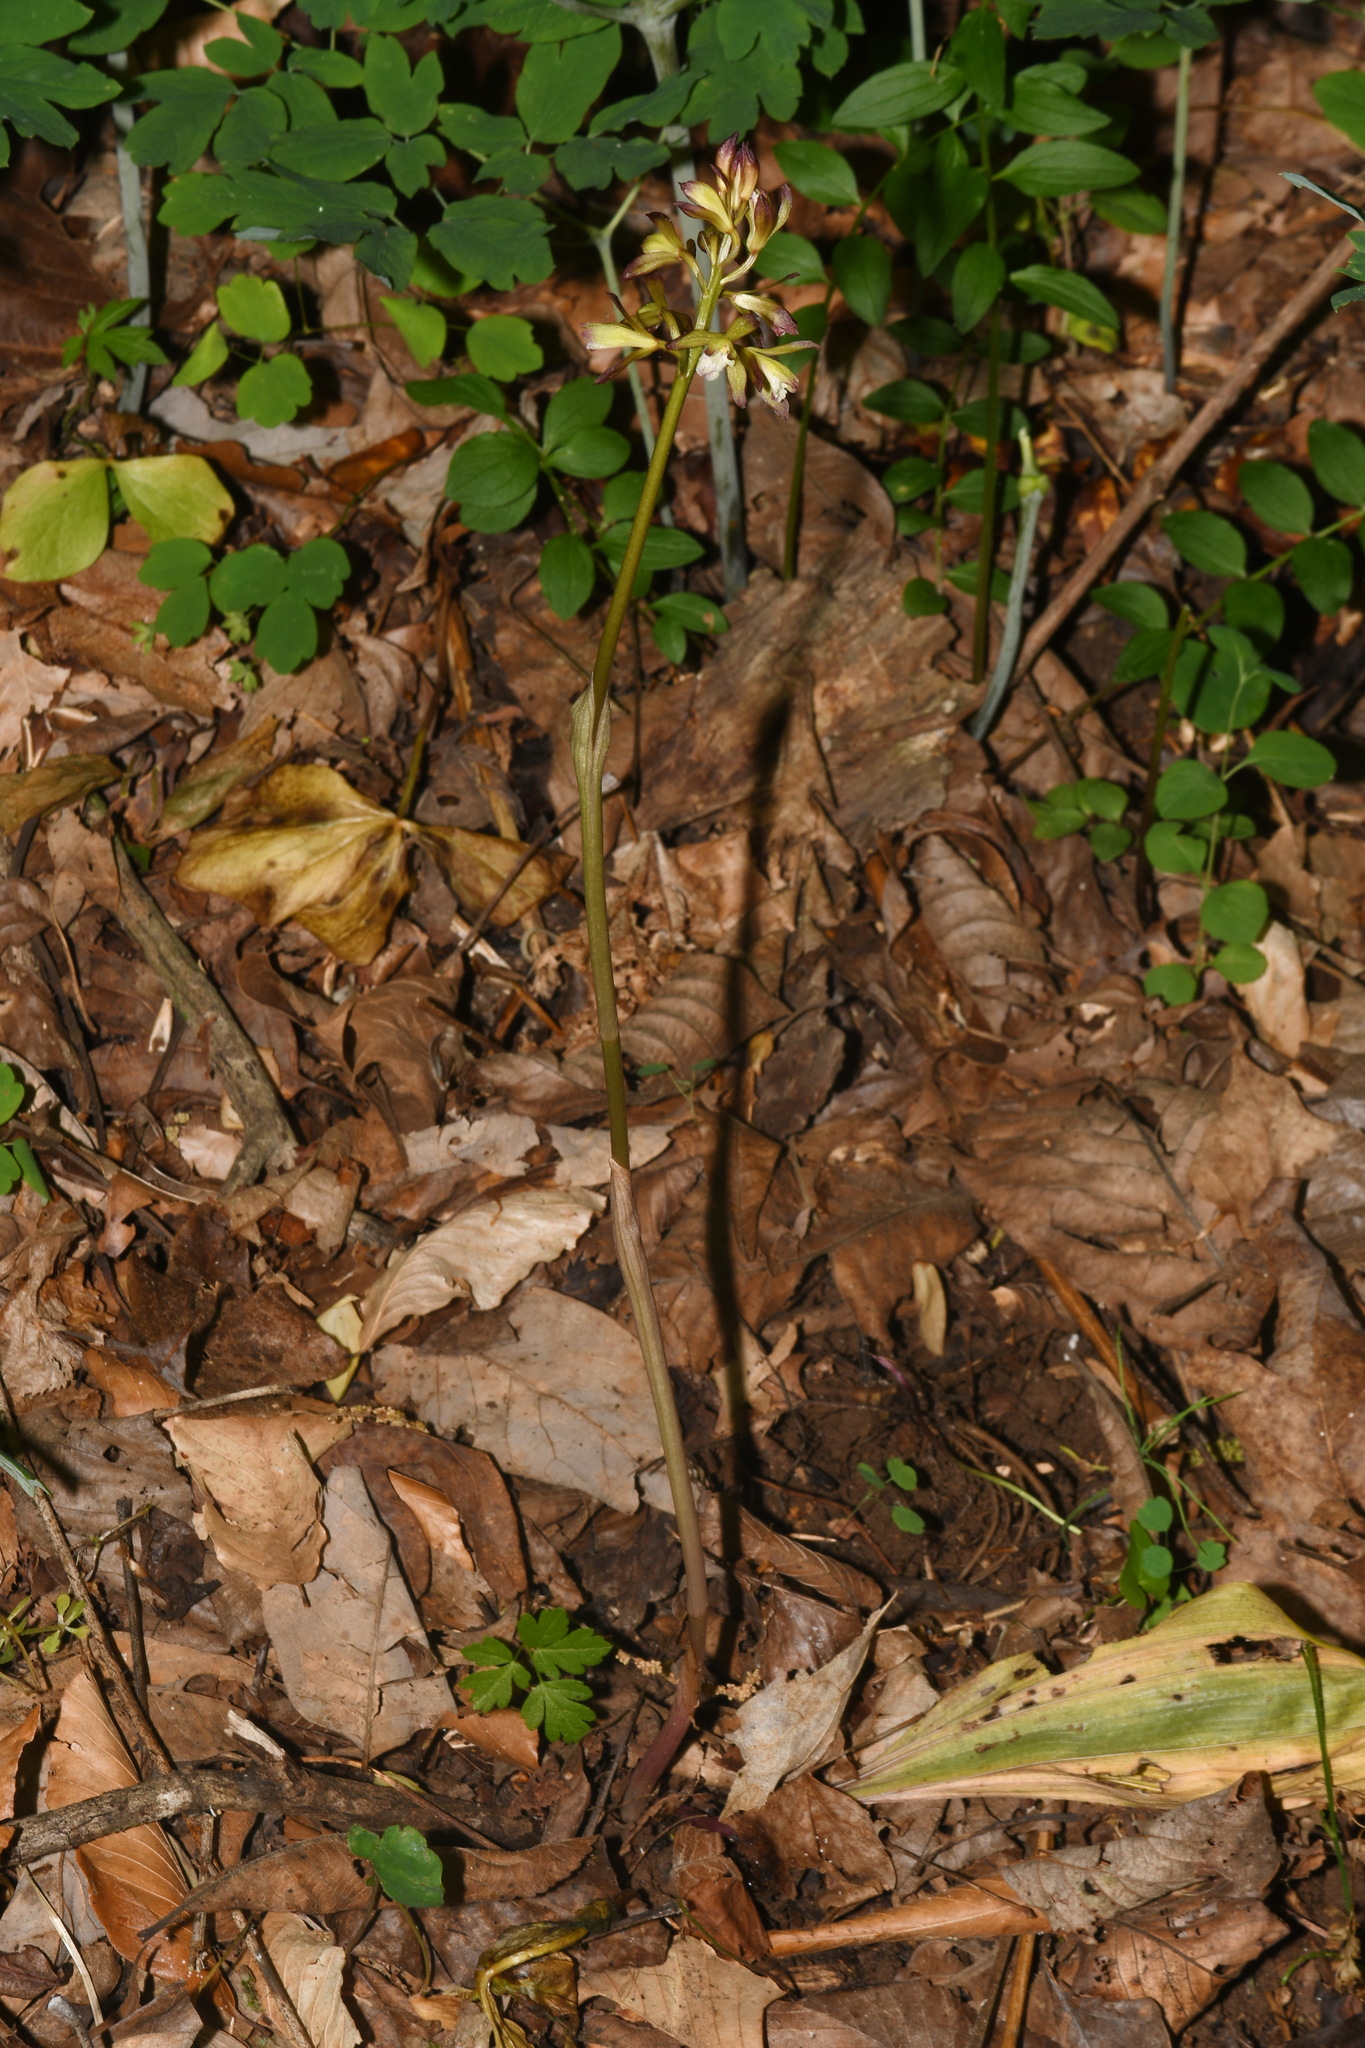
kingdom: Plantae
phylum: Tracheophyta
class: Liliopsida
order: Asparagales
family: Orchidaceae
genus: Aplectrum
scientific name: Aplectrum hyemale
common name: Adam-and-eve
